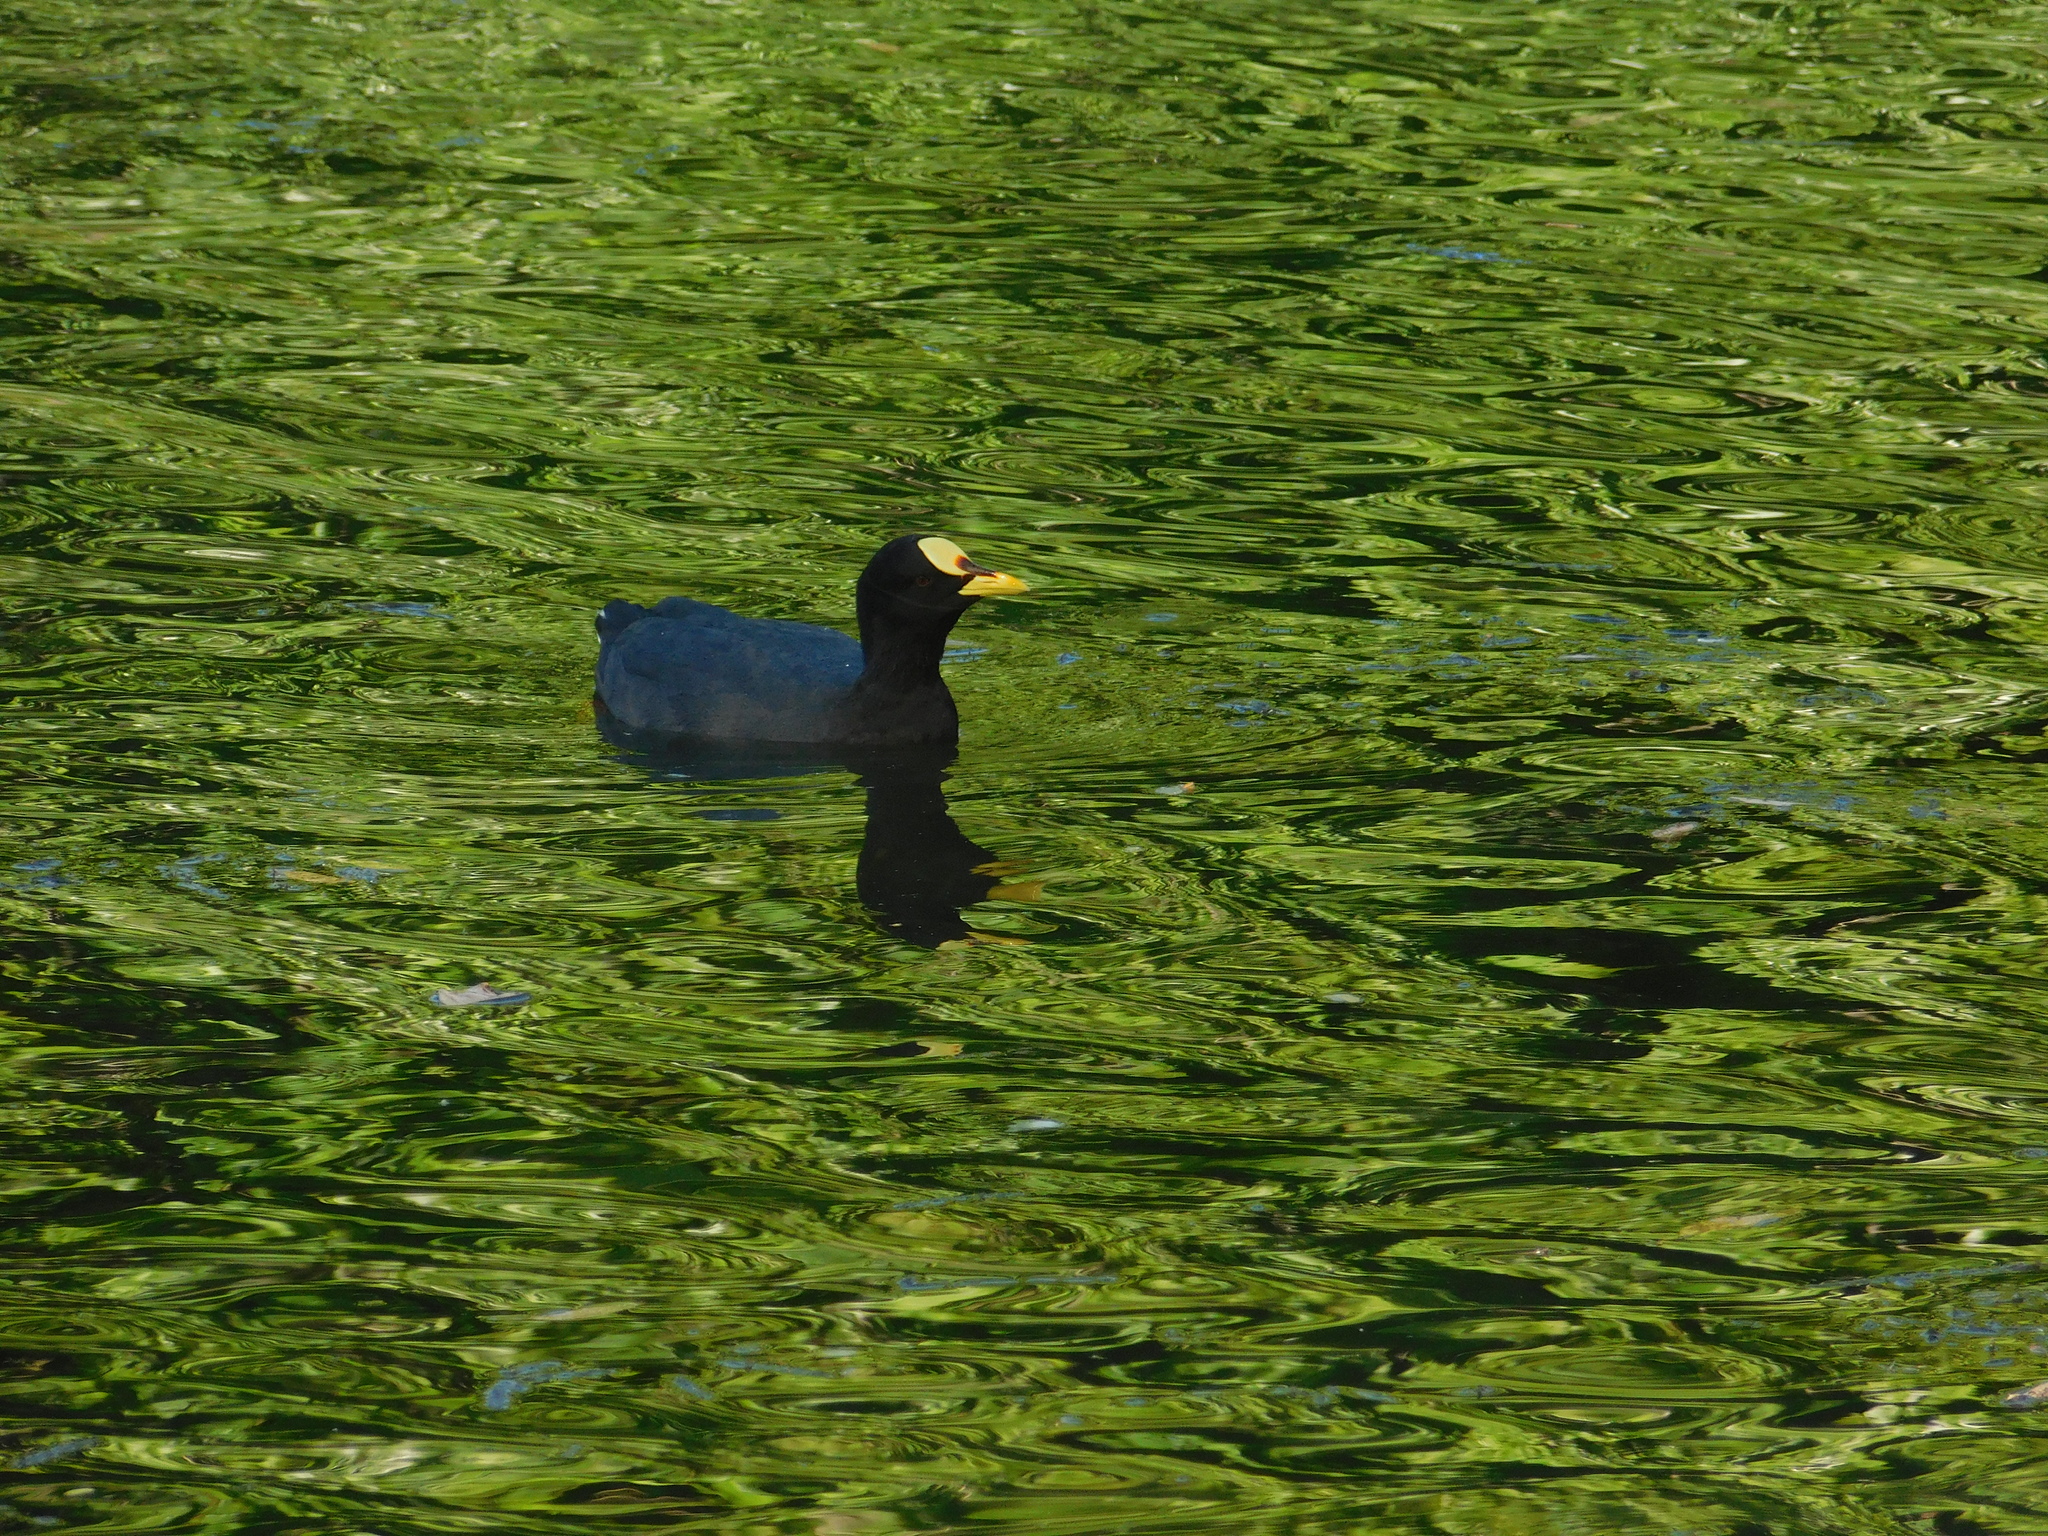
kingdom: Animalia
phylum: Chordata
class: Aves
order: Gruiformes
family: Rallidae
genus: Fulica
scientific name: Fulica armillata
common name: Red-gartered coot
